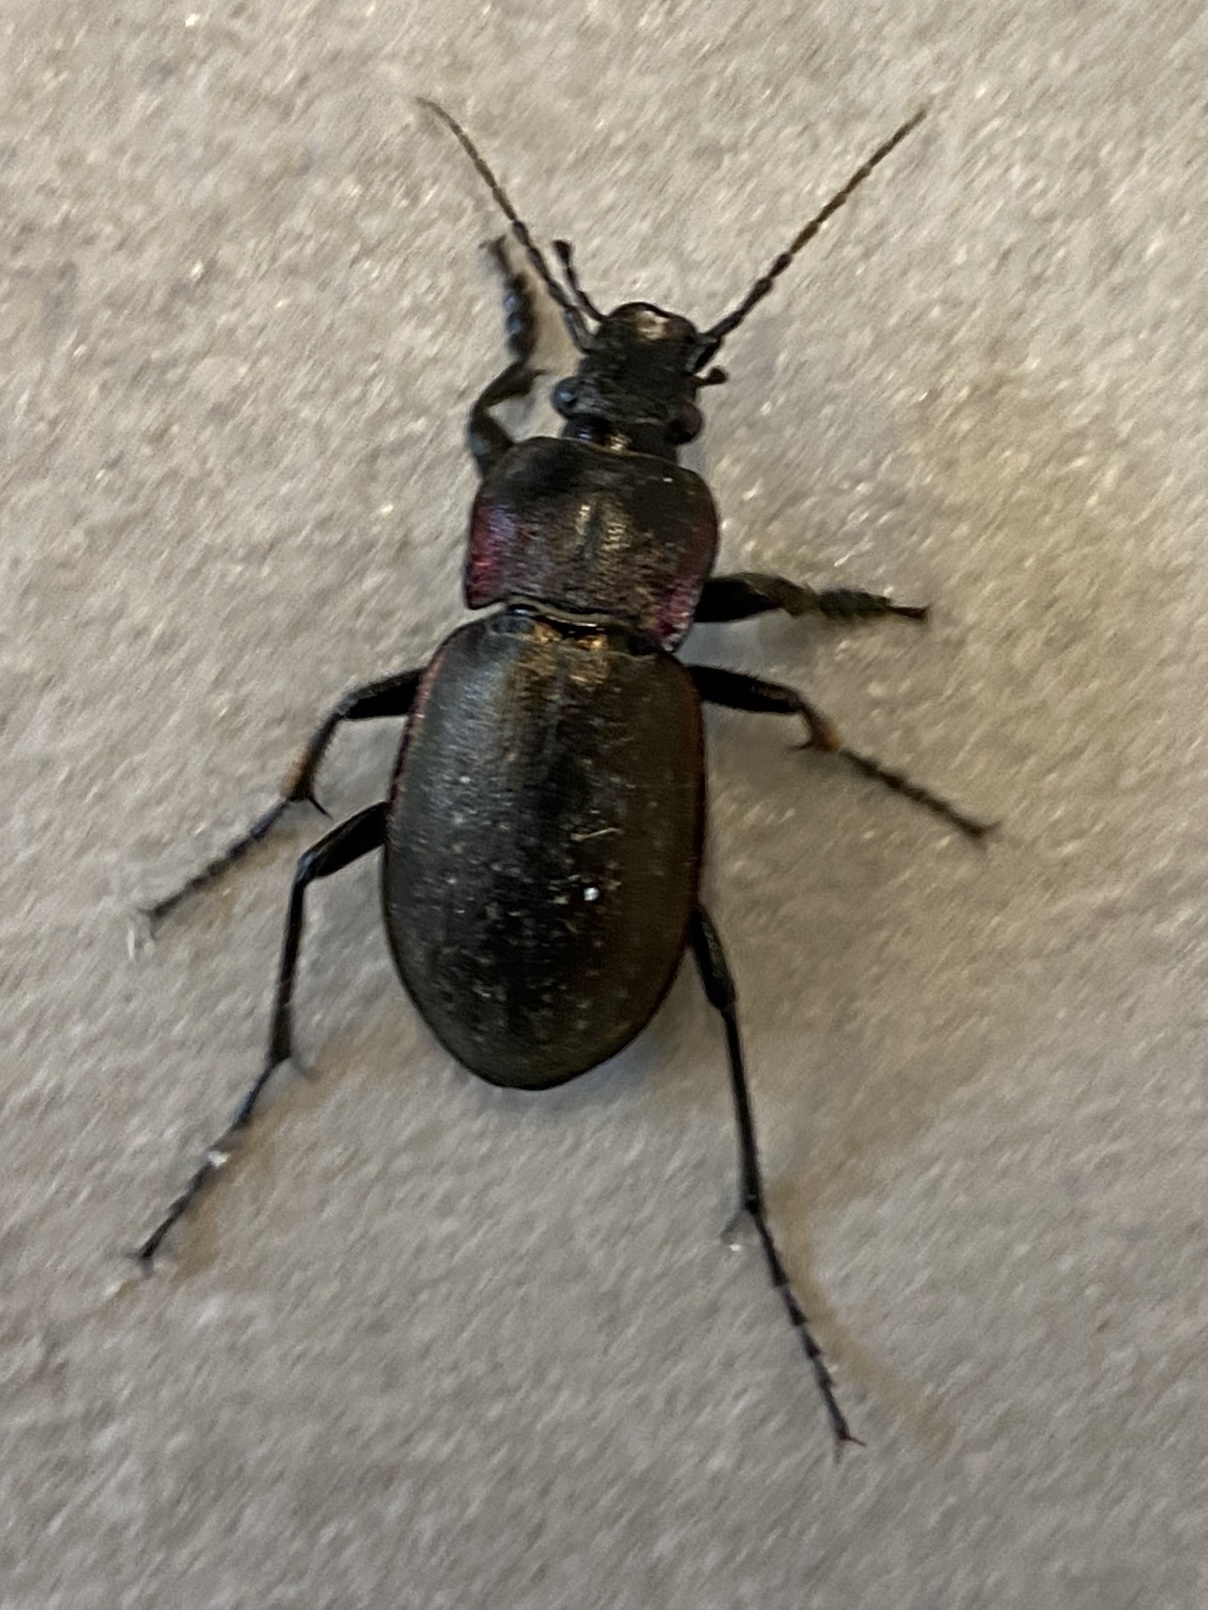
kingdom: Animalia
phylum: Arthropoda
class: Insecta
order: Coleoptera
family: Carabidae
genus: Carabus
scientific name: Carabus nemoralis
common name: European ground beetle
